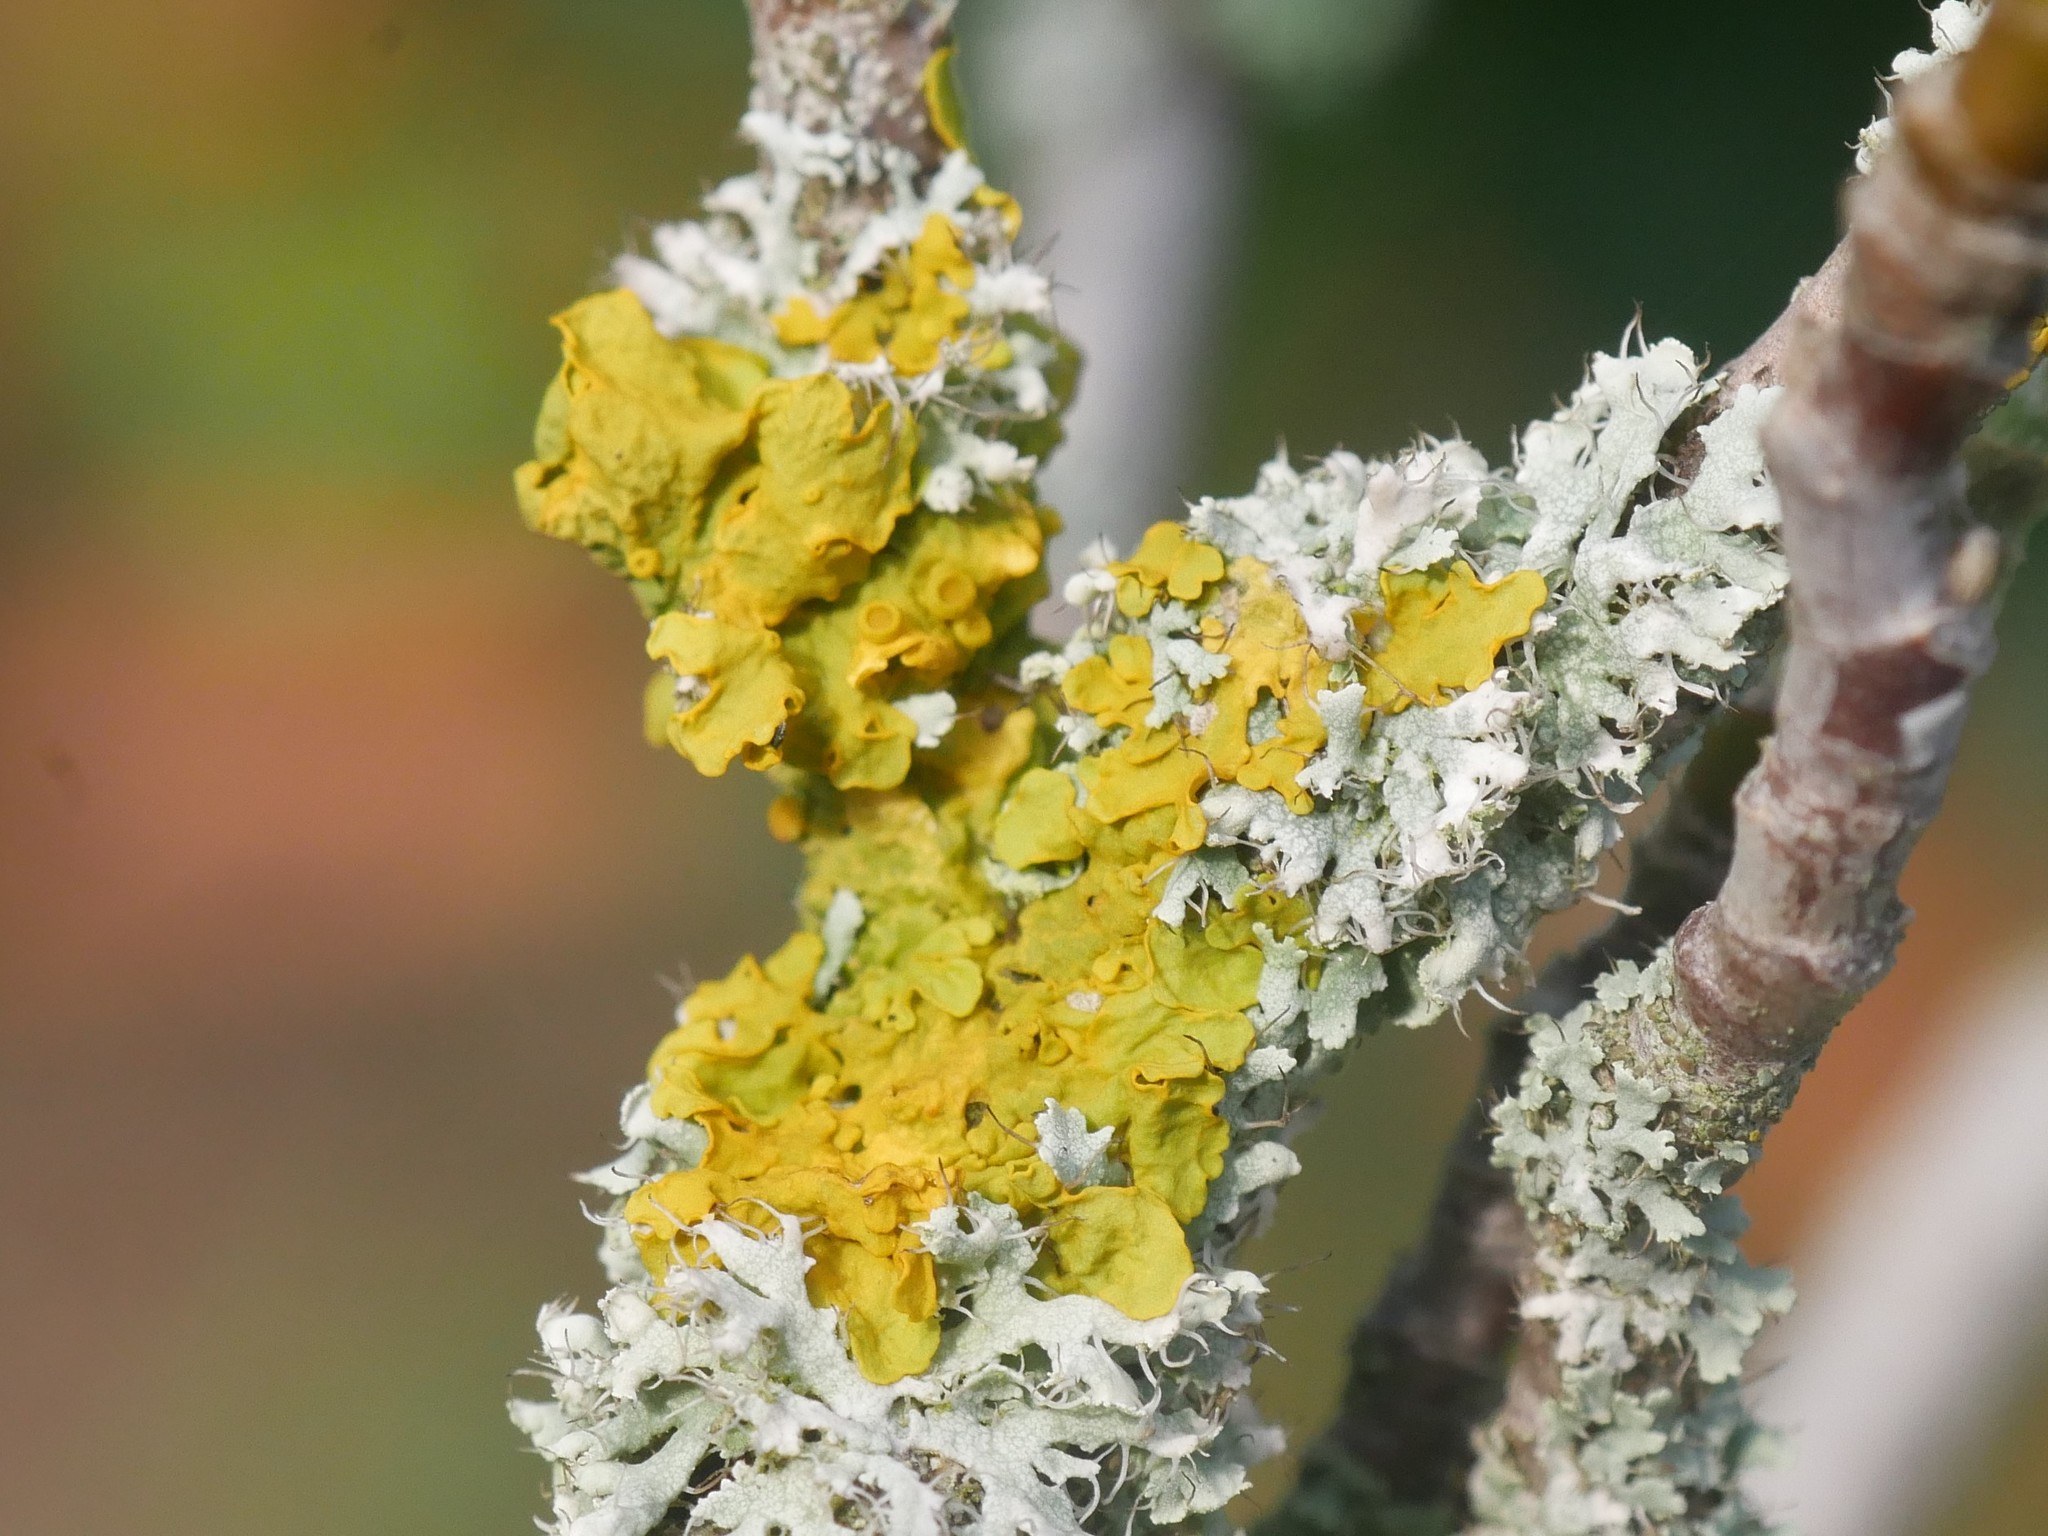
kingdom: Fungi
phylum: Ascomycota
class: Lecanoromycetes
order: Teloschistales
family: Teloschistaceae
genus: Xanthoria
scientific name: Xanthoria parietina
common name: Common orange lichen
